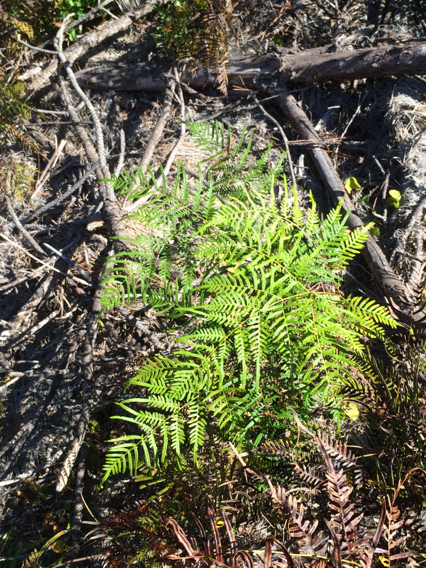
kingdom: Plantae
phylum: Tracheophyta
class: Polypodiopsida
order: Polypodiales
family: Dennstaedtiaceae
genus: Pteridium
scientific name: Pteridium aquilinum
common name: Bracken
